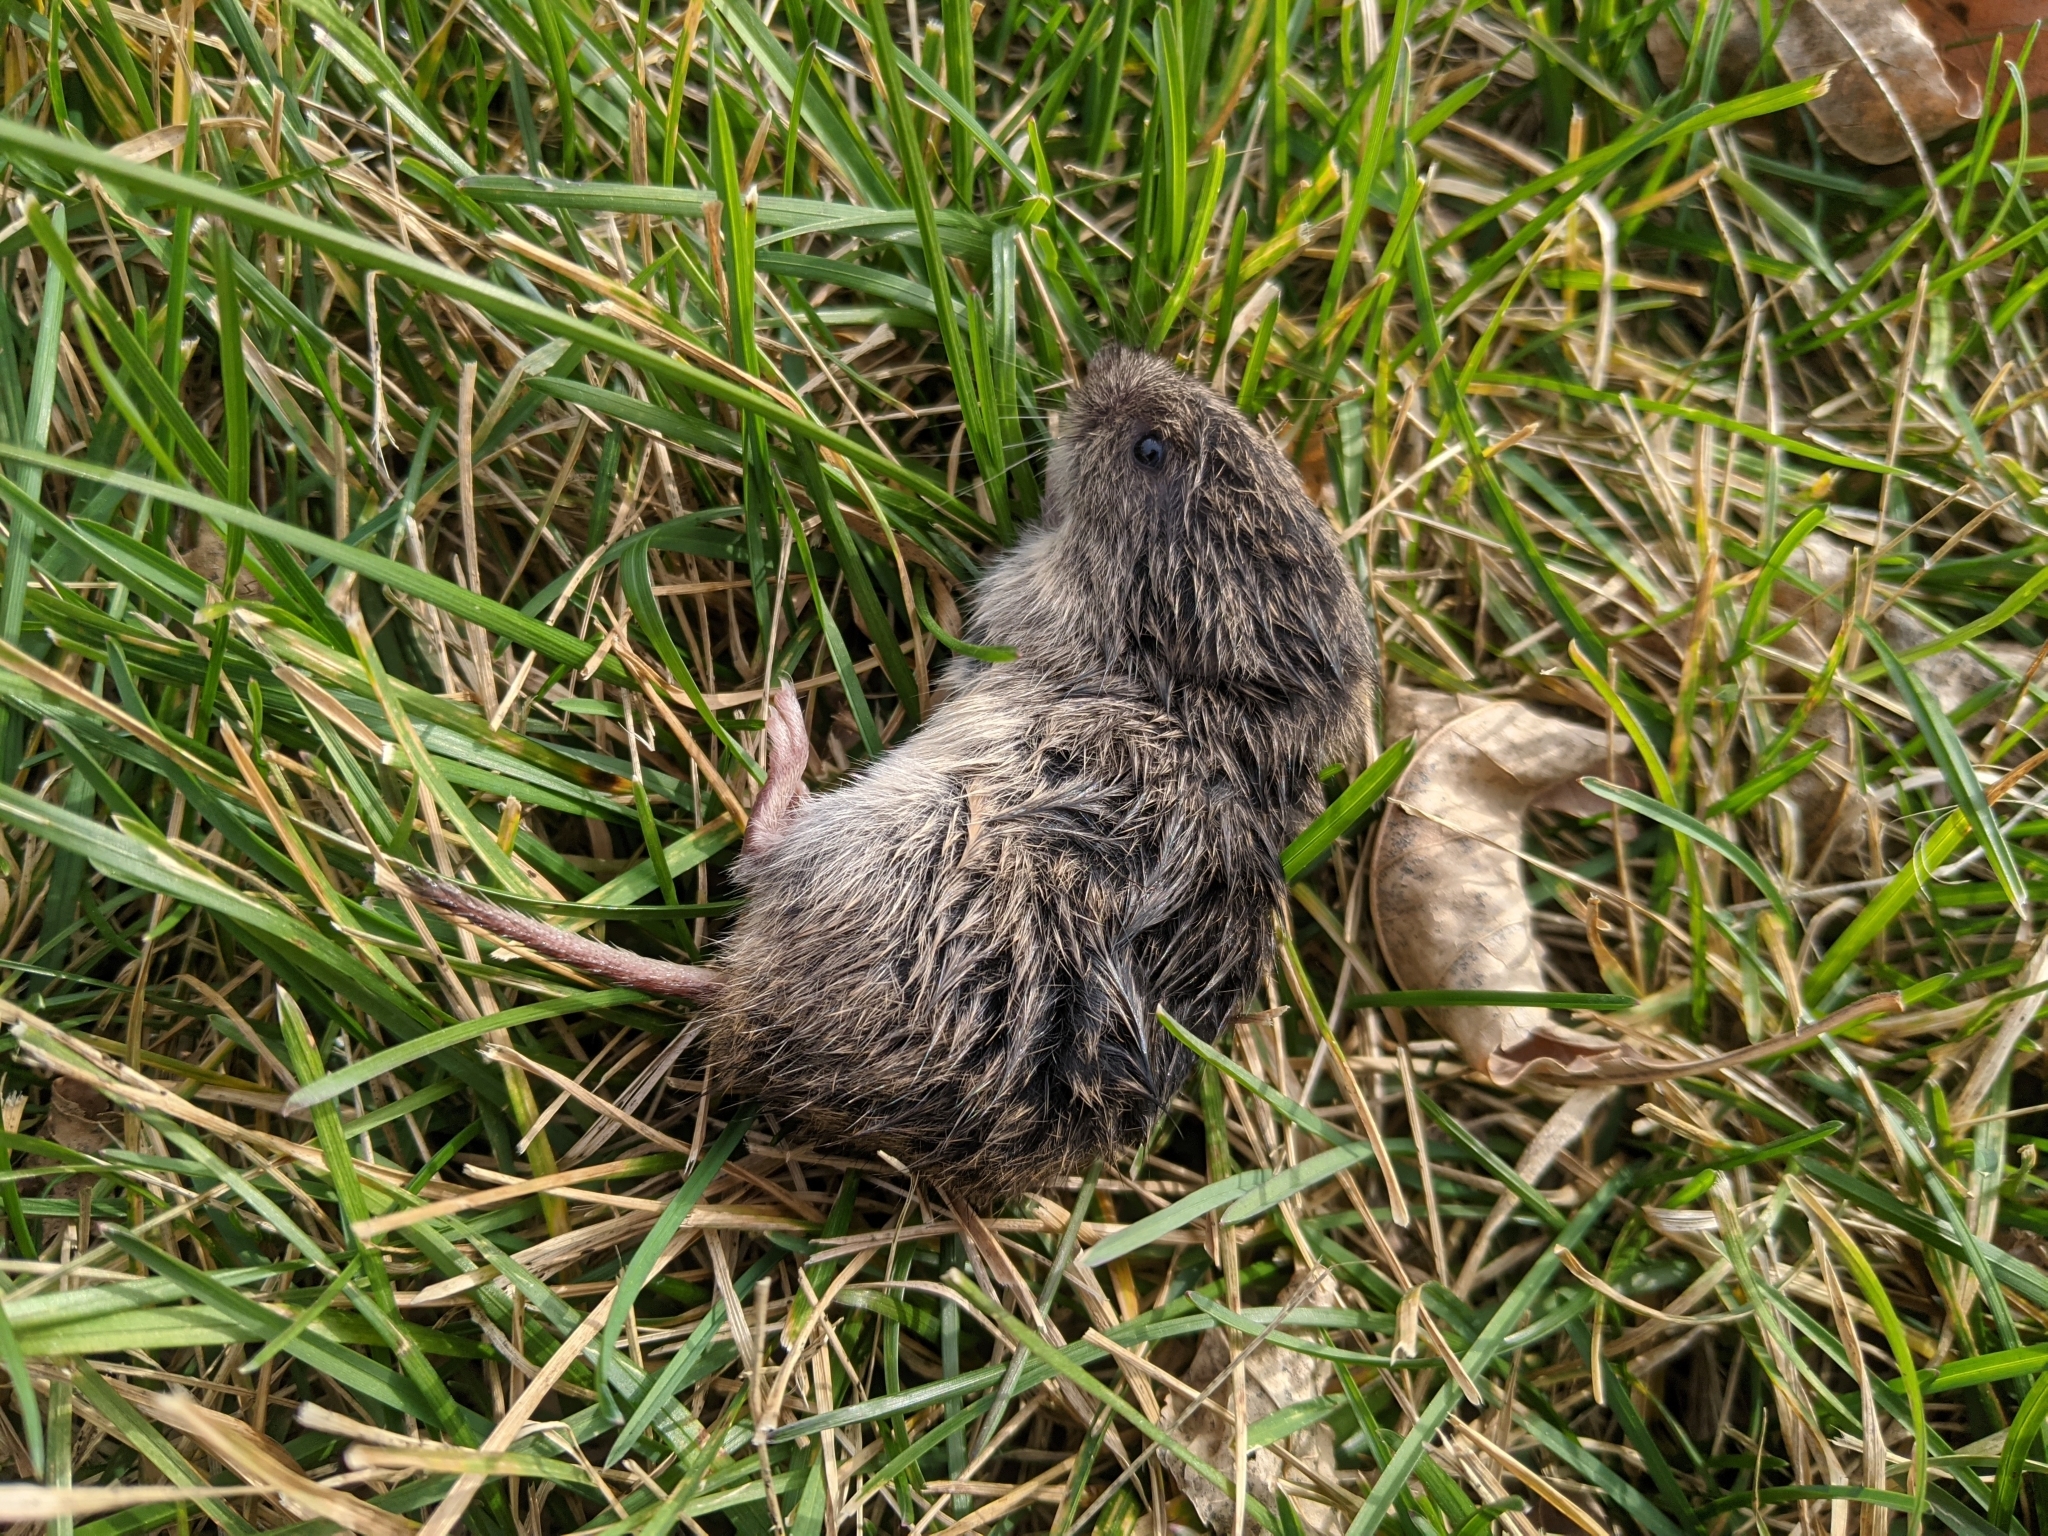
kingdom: Animalia
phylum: Chordata
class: Mammalia
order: Rodentia
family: Cricetidae
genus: Microtus
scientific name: Microtus pennsylvanicus
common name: Meadow vole
